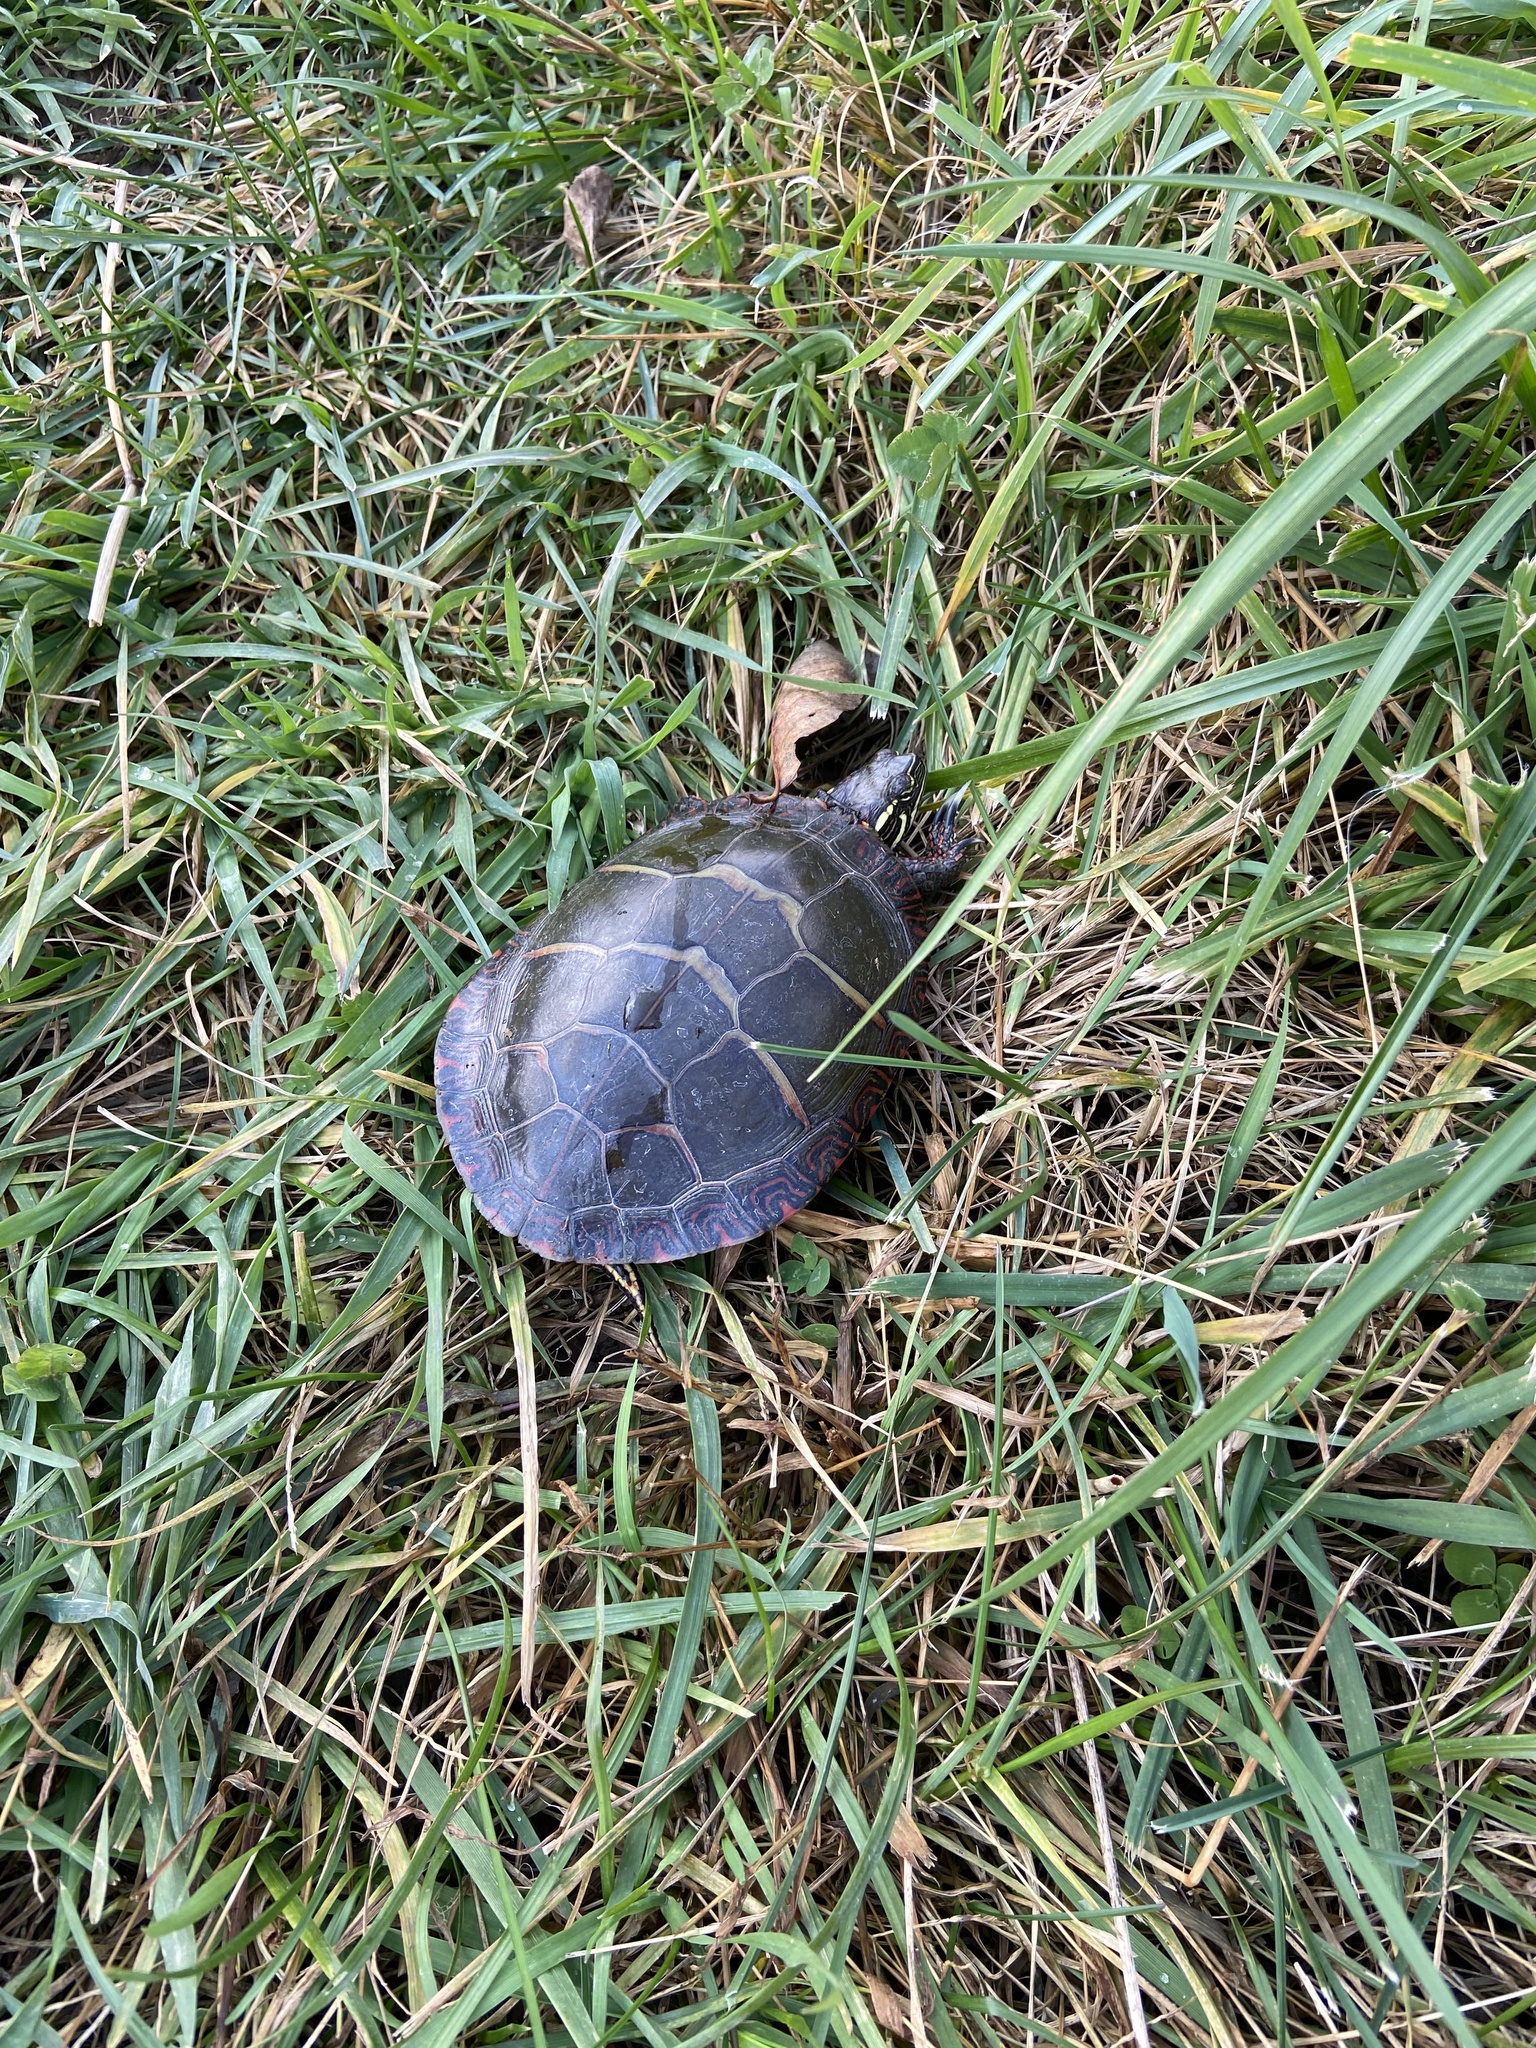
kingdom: Animalia
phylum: Chordata
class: Testudines
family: Emydidae
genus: Chrysemys
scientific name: Chrysemys picta
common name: Painted turtle
